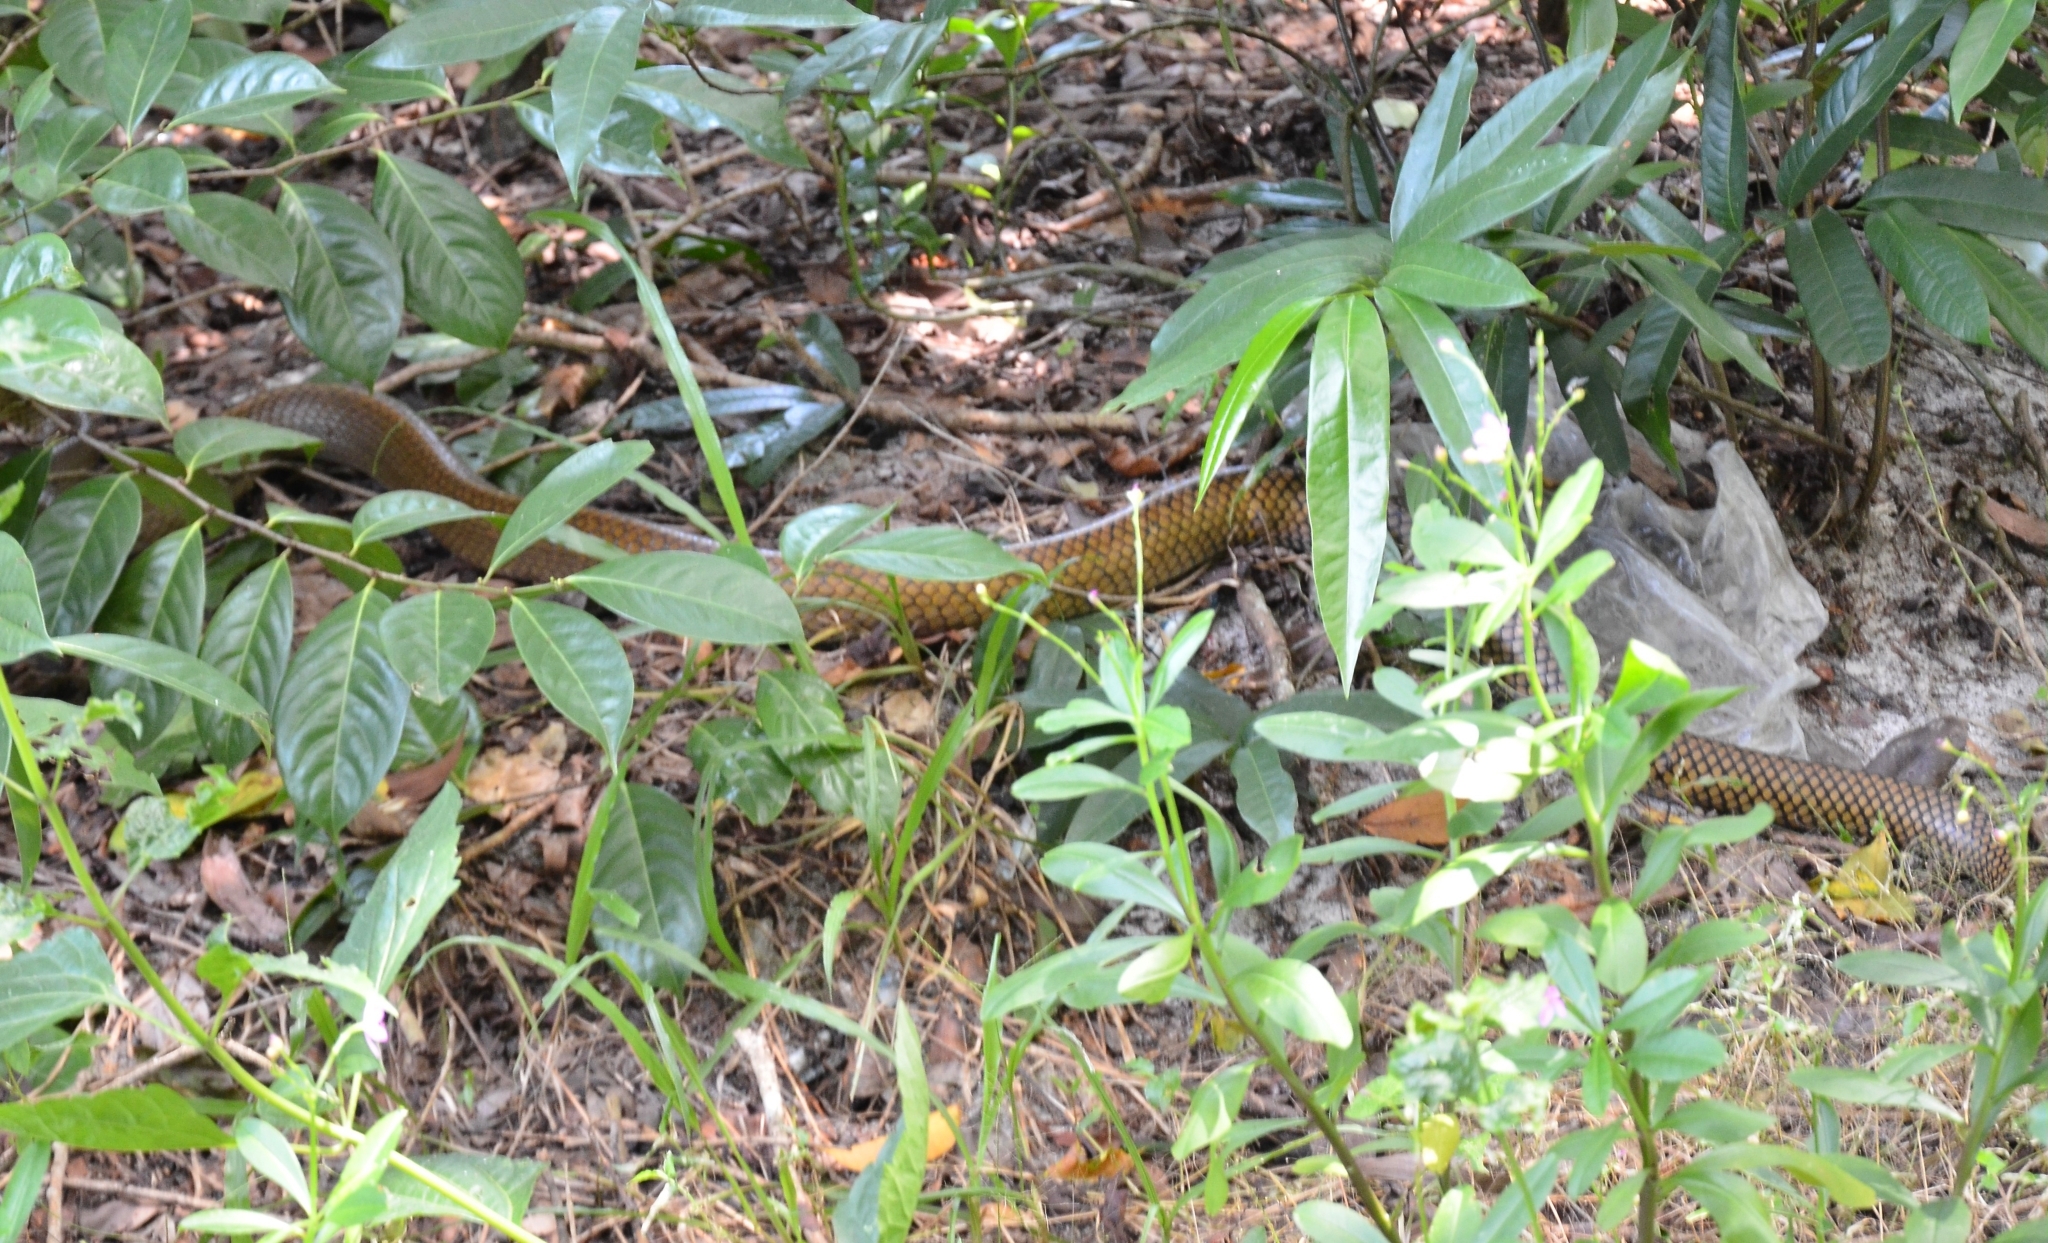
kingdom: Animalia
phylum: Chordata
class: Squamata
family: Colubridae
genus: Ptyas
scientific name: Ptyas mucosa
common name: Oriental ratsnake
